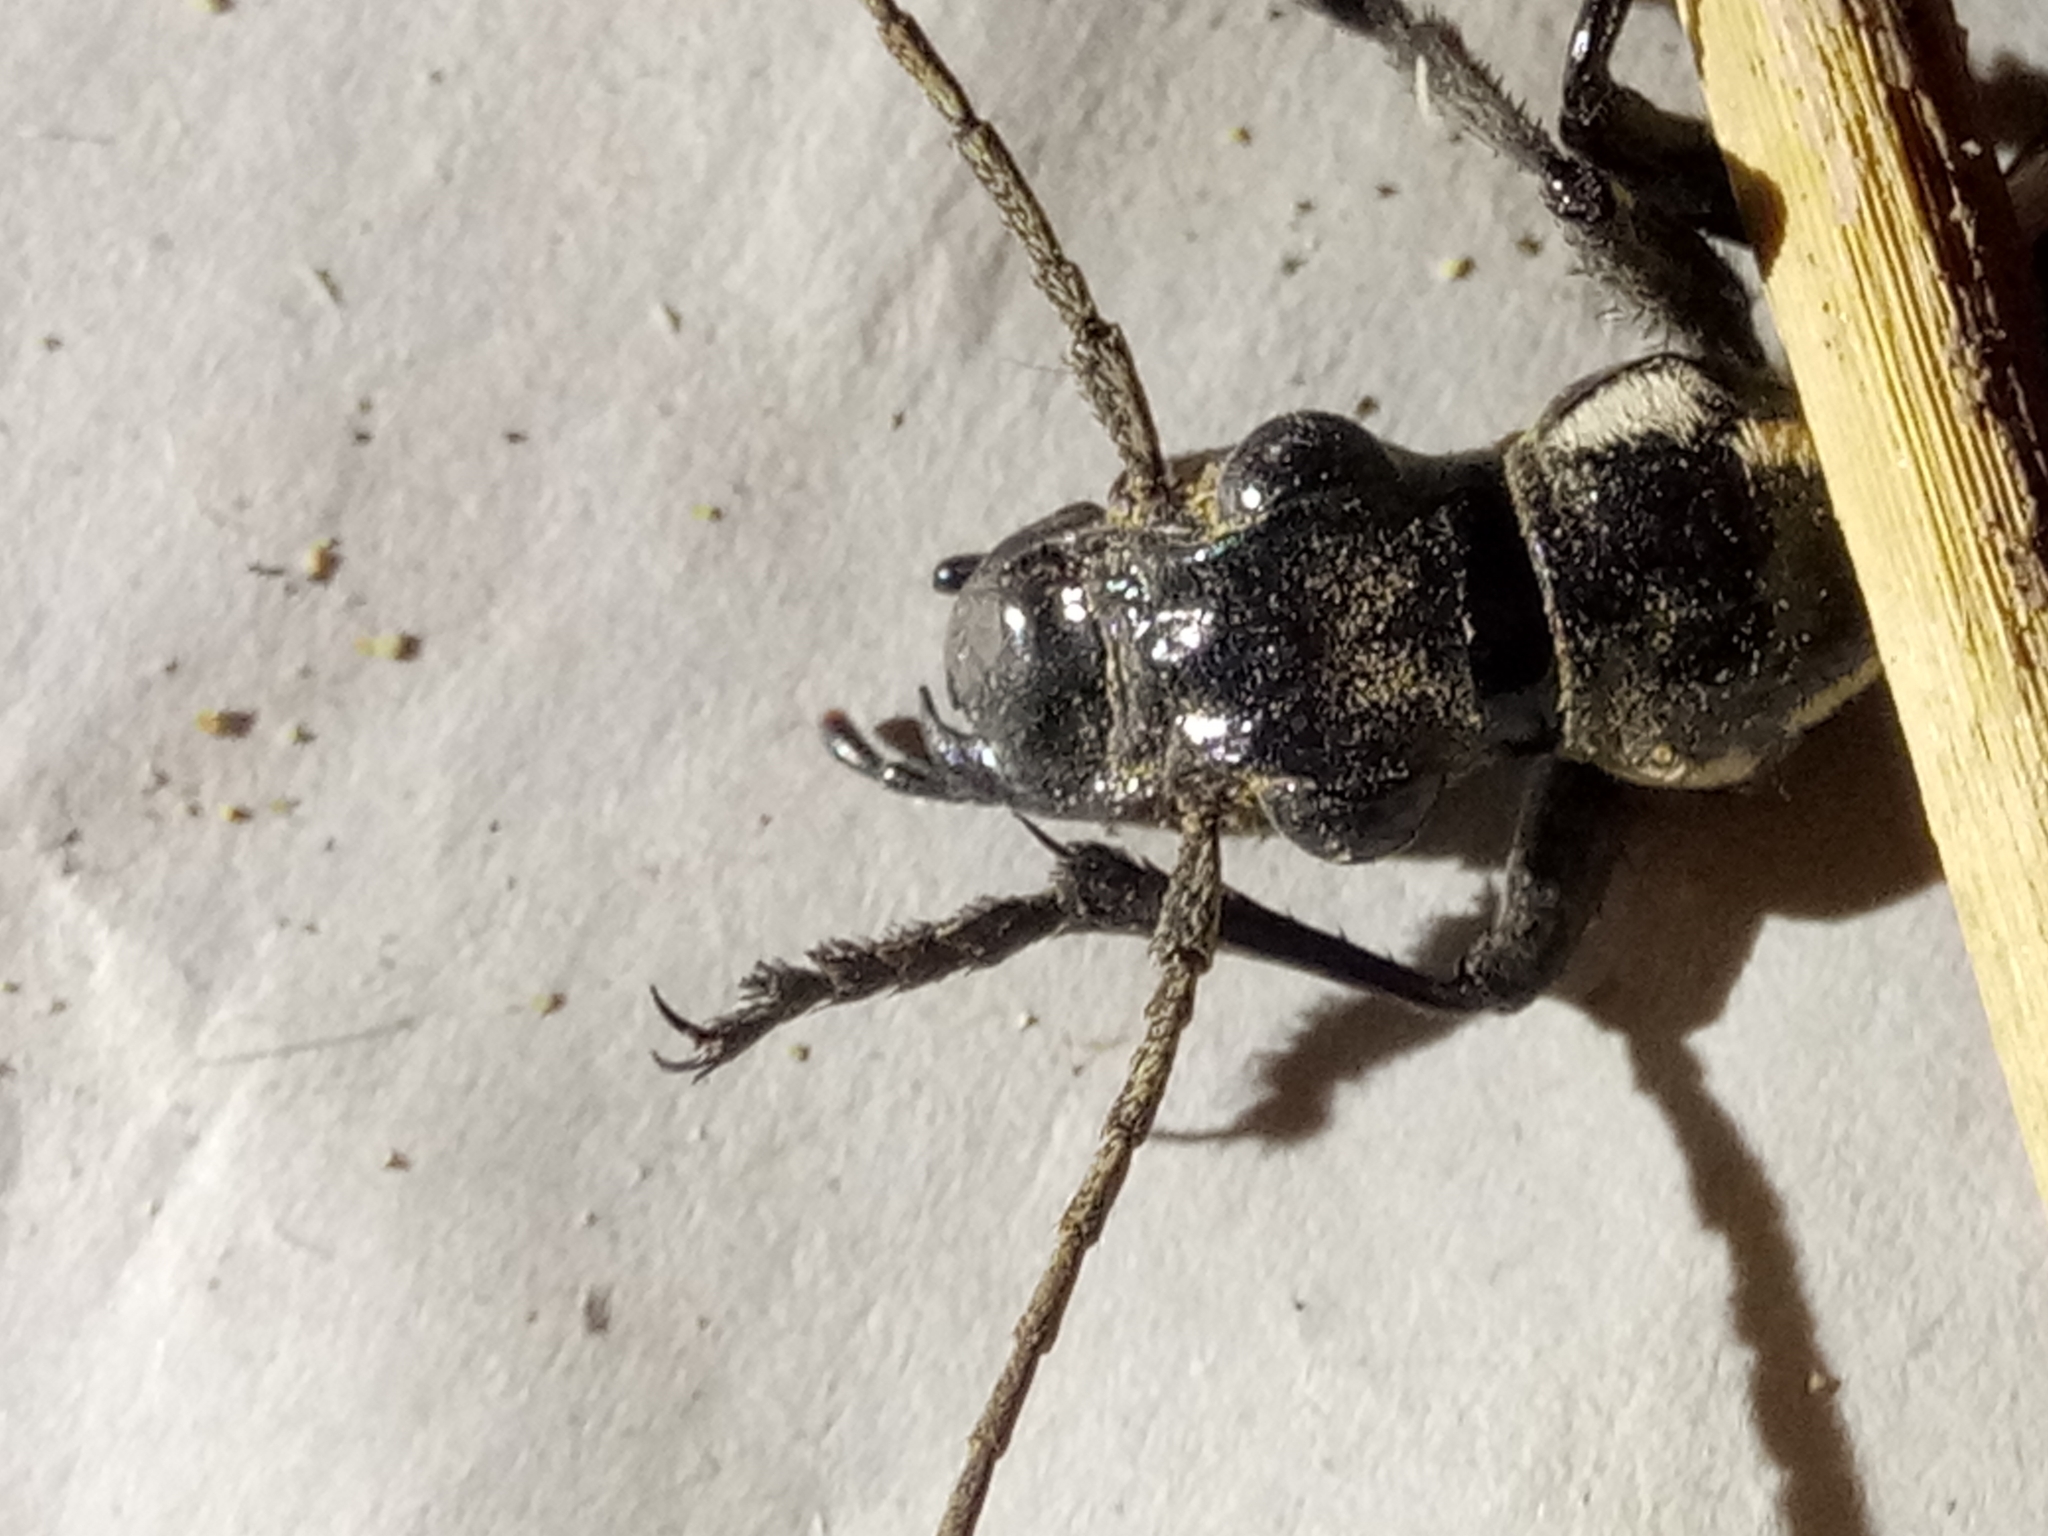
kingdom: Animalia
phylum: Arthropoda
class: Insecta
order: Coleoptera
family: Carabidae
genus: Anthia
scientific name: Anthia sexmaculata
